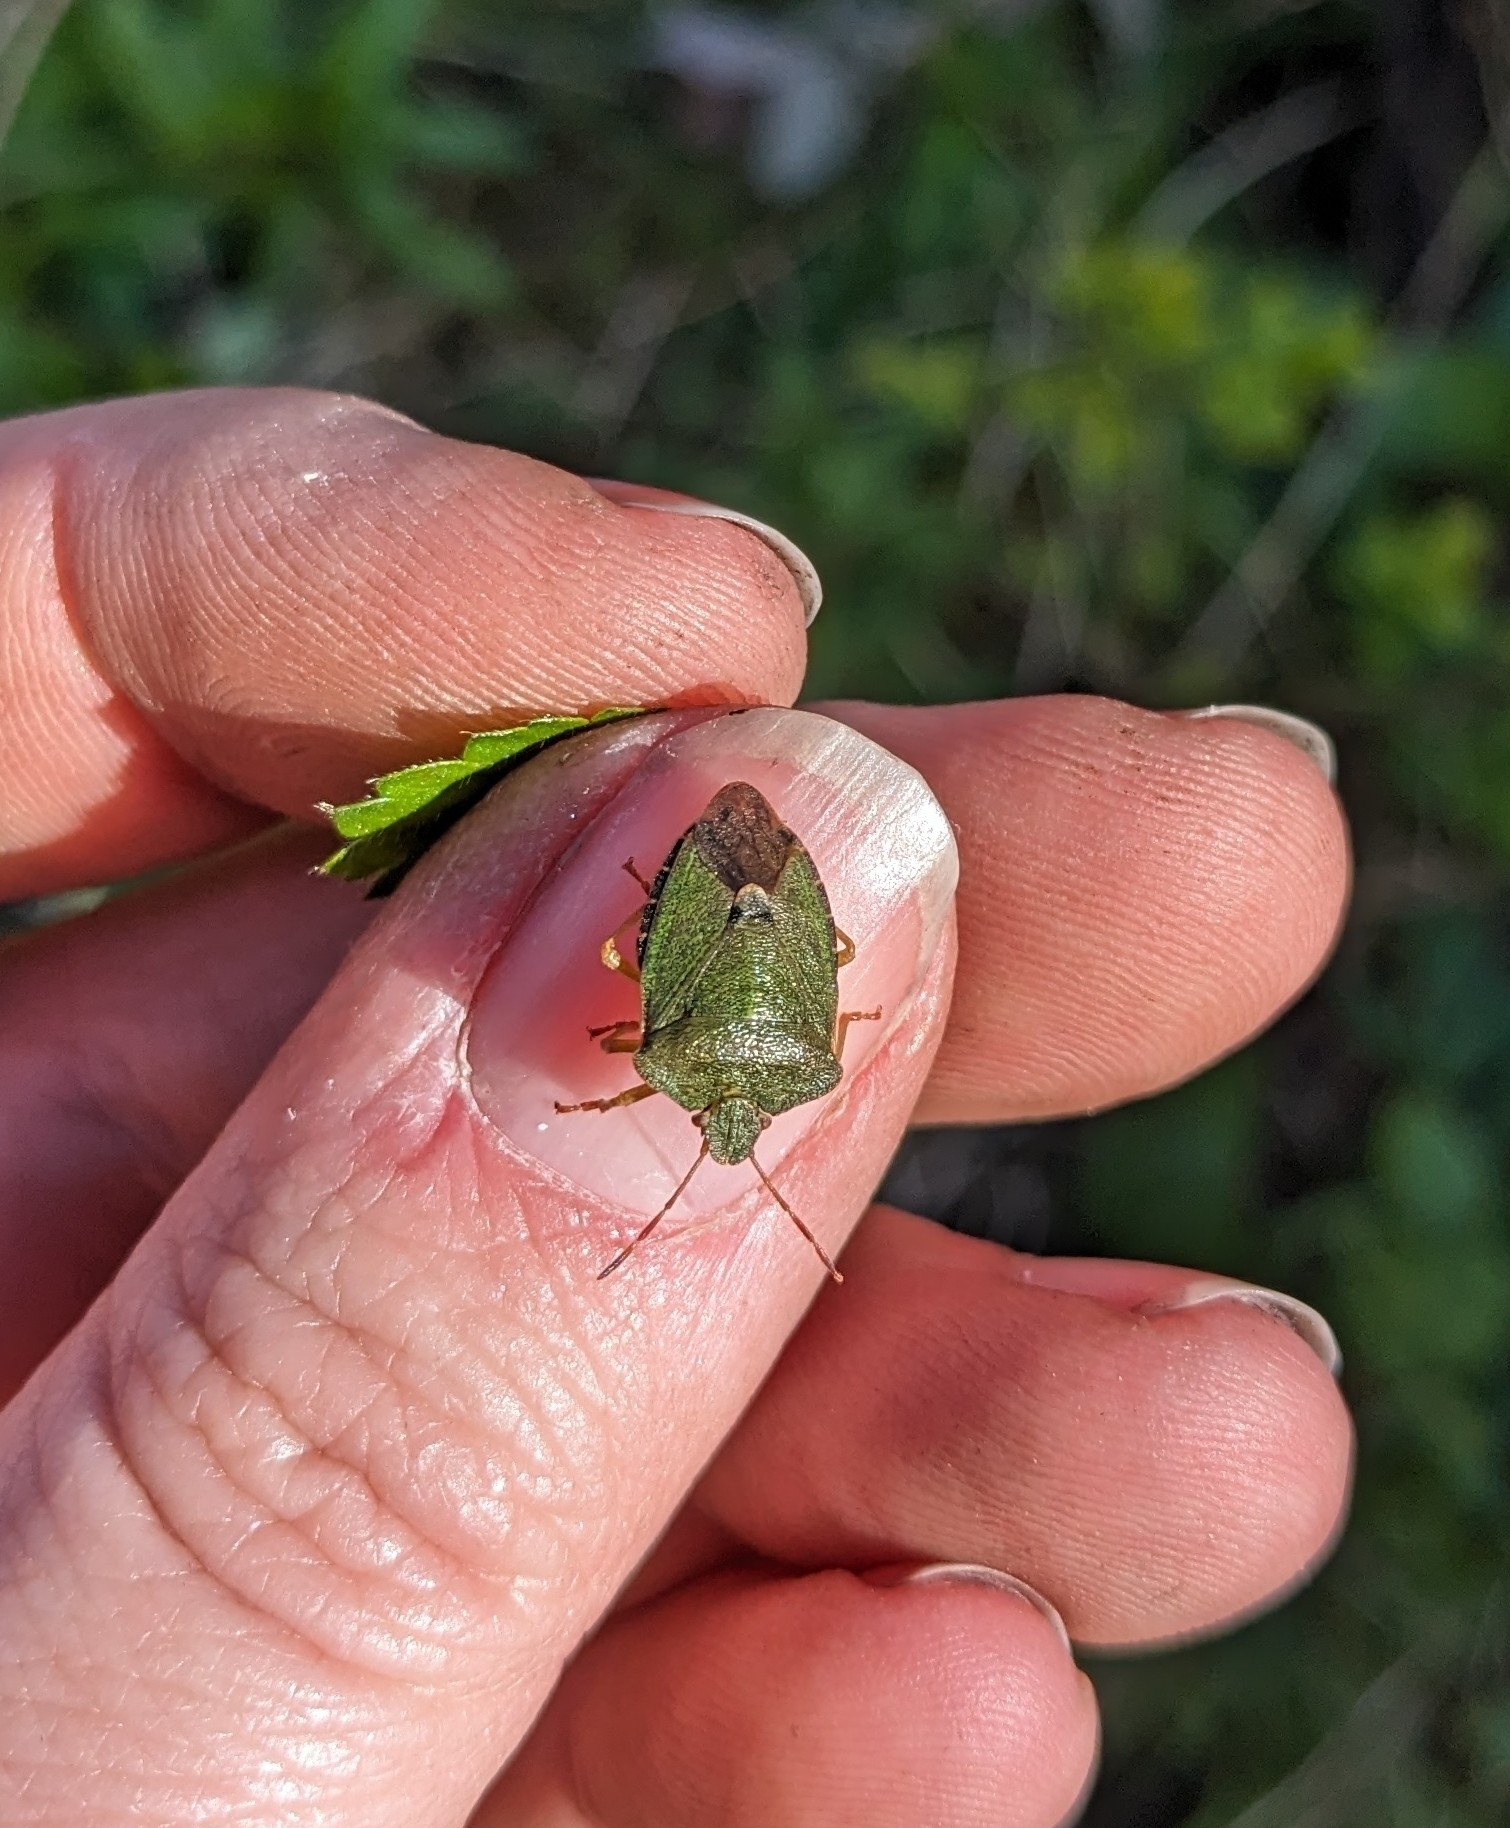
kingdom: Animalia
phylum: Arthropoda
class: Insecta
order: Hemiptera
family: Pentatomidae
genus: Palomena
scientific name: Palomena prasina
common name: Green shieldbug
